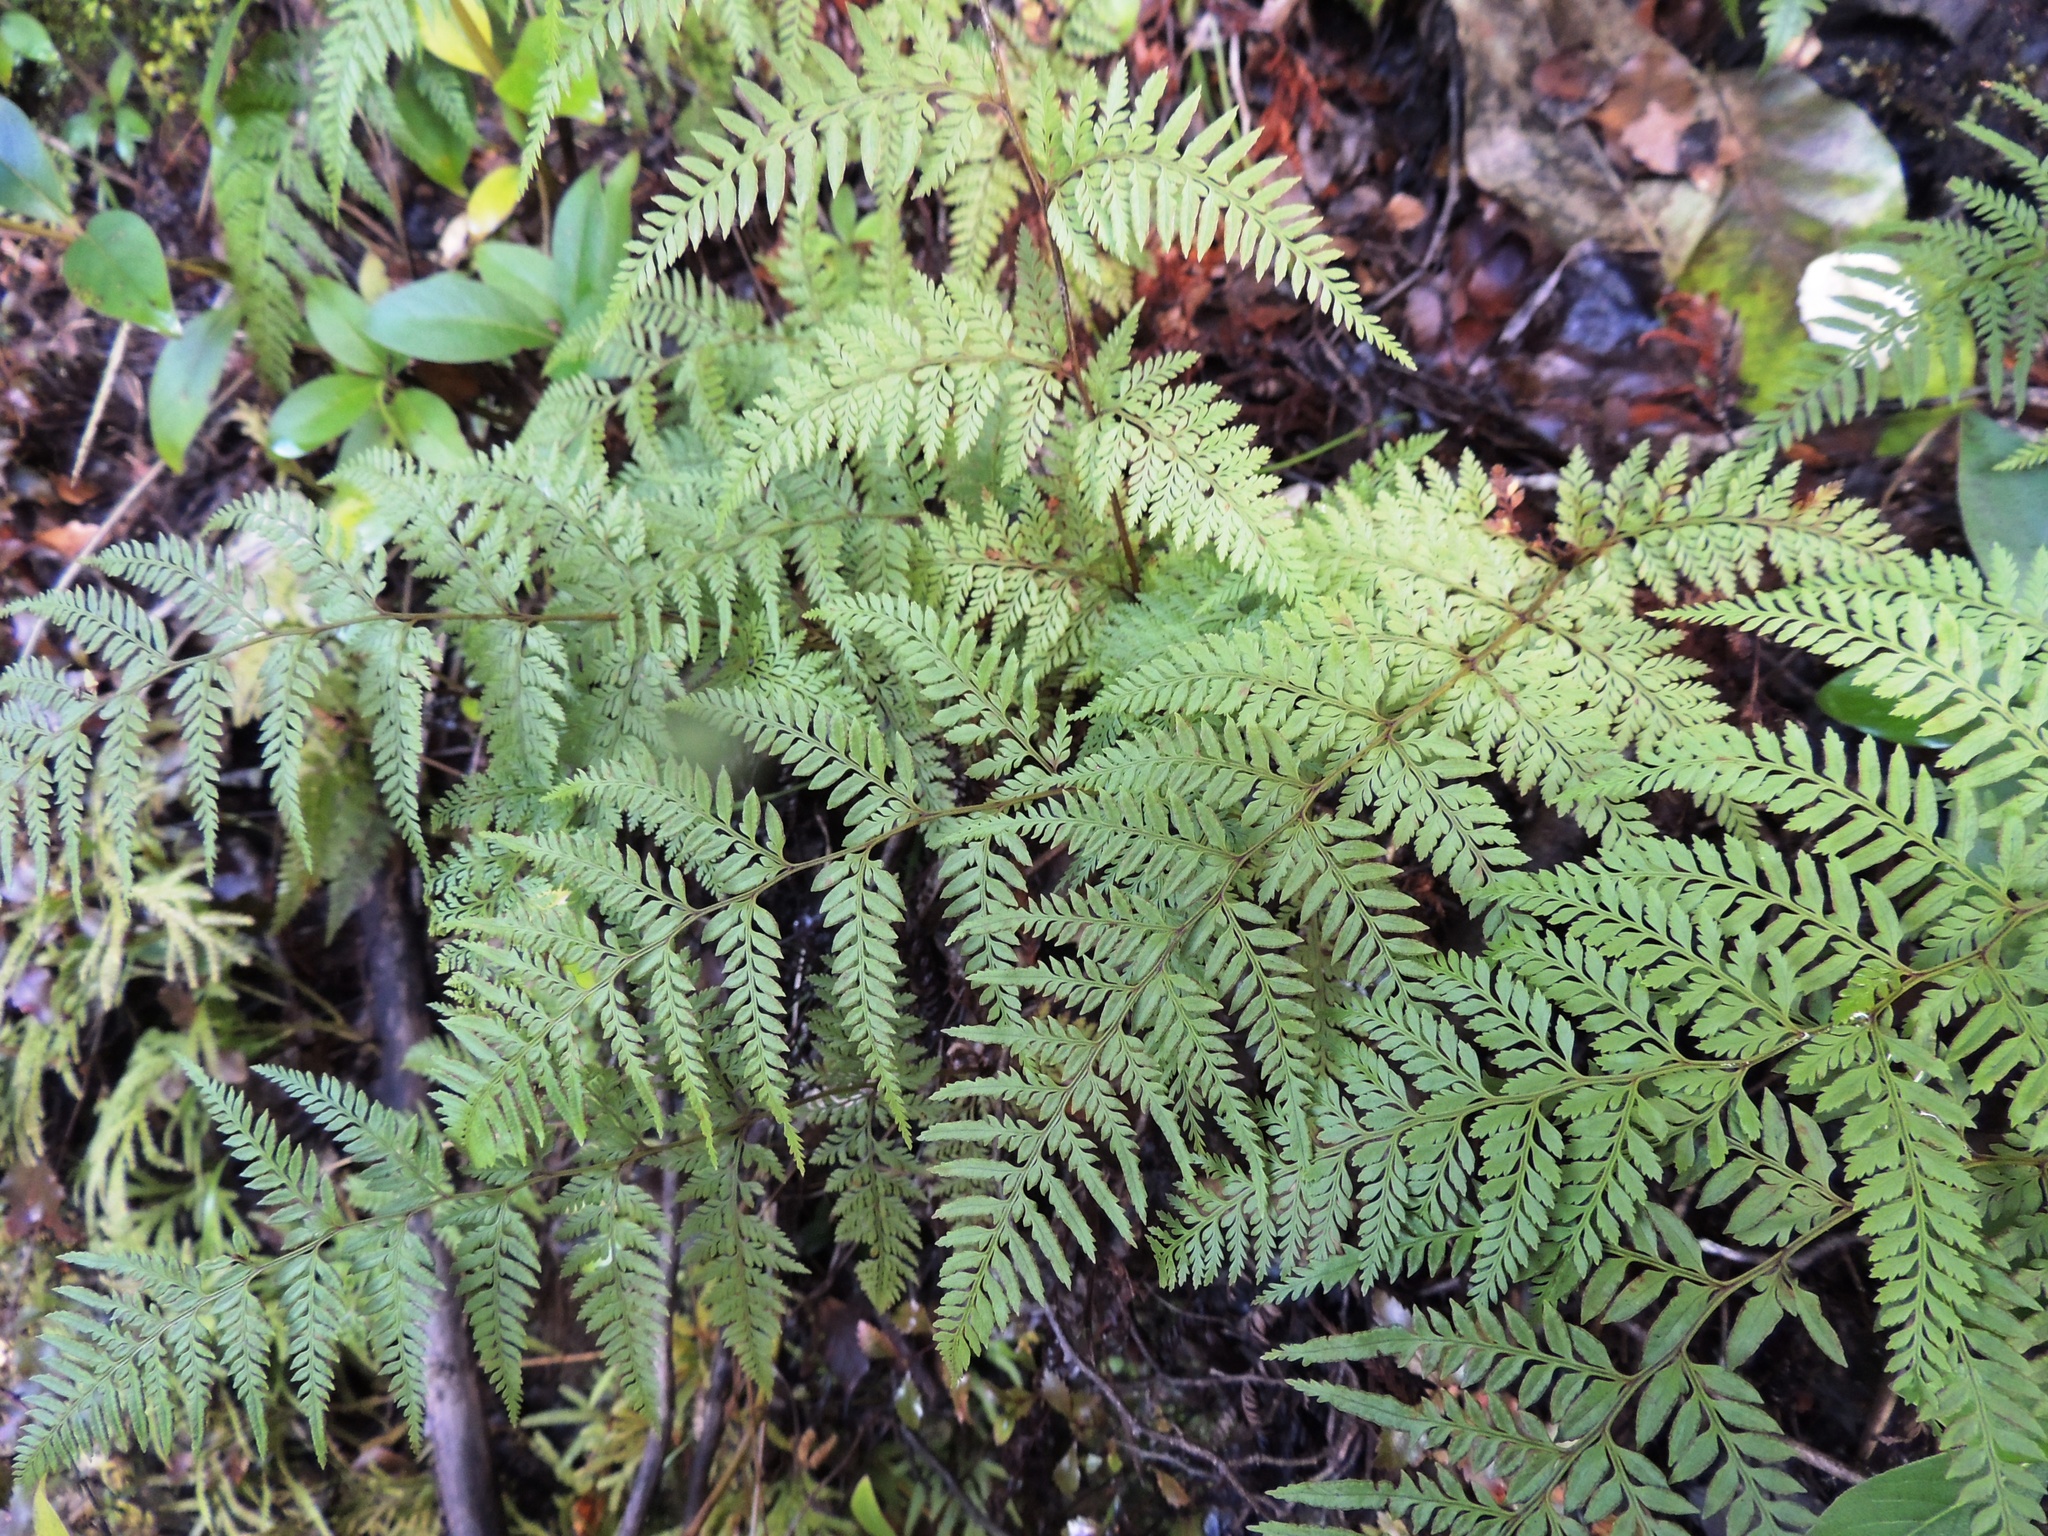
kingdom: Plantae
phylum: Tracheophyta
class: Polypodiopsida
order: Polypodiales
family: Dennstaedtiaceae
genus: Paesia
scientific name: Paesia scaberula
